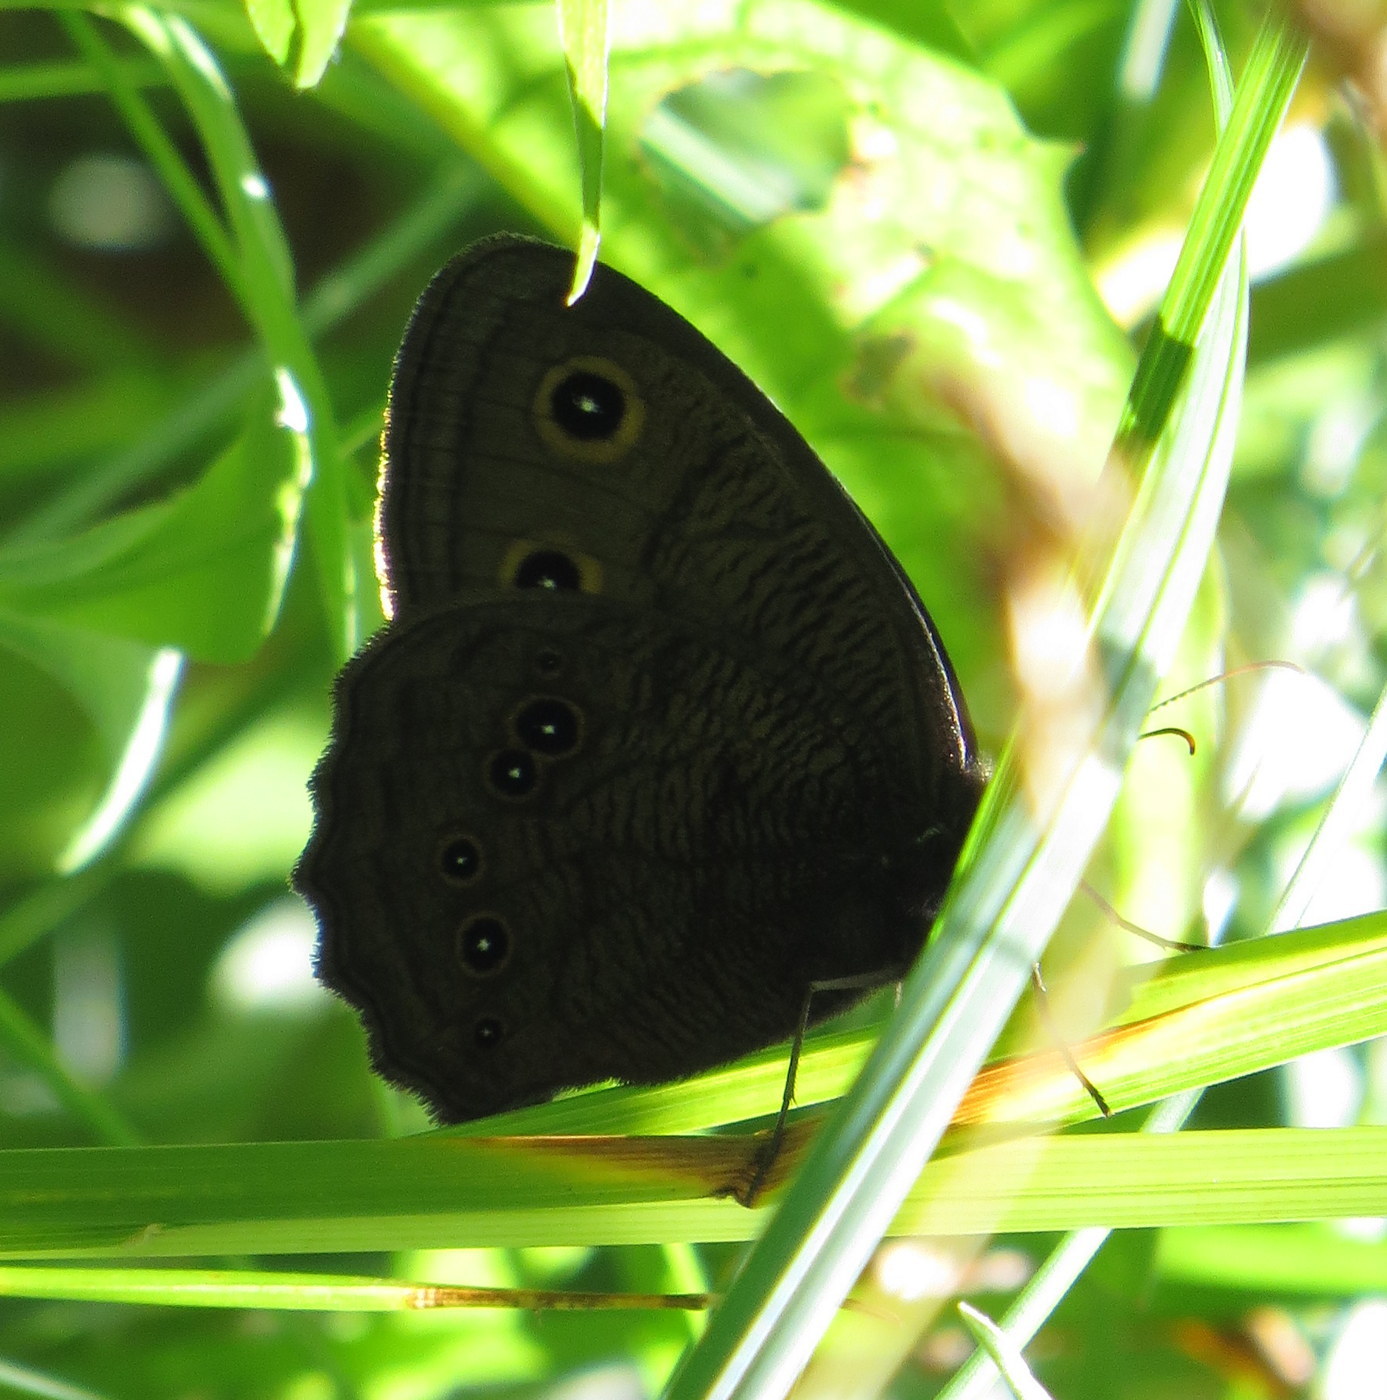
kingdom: Animalia
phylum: Arthropoda
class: Insecta
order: Lepidoptera
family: Nymphalidae
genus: Cercyonis
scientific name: Cercyonis pegala
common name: Common wood-nymph
